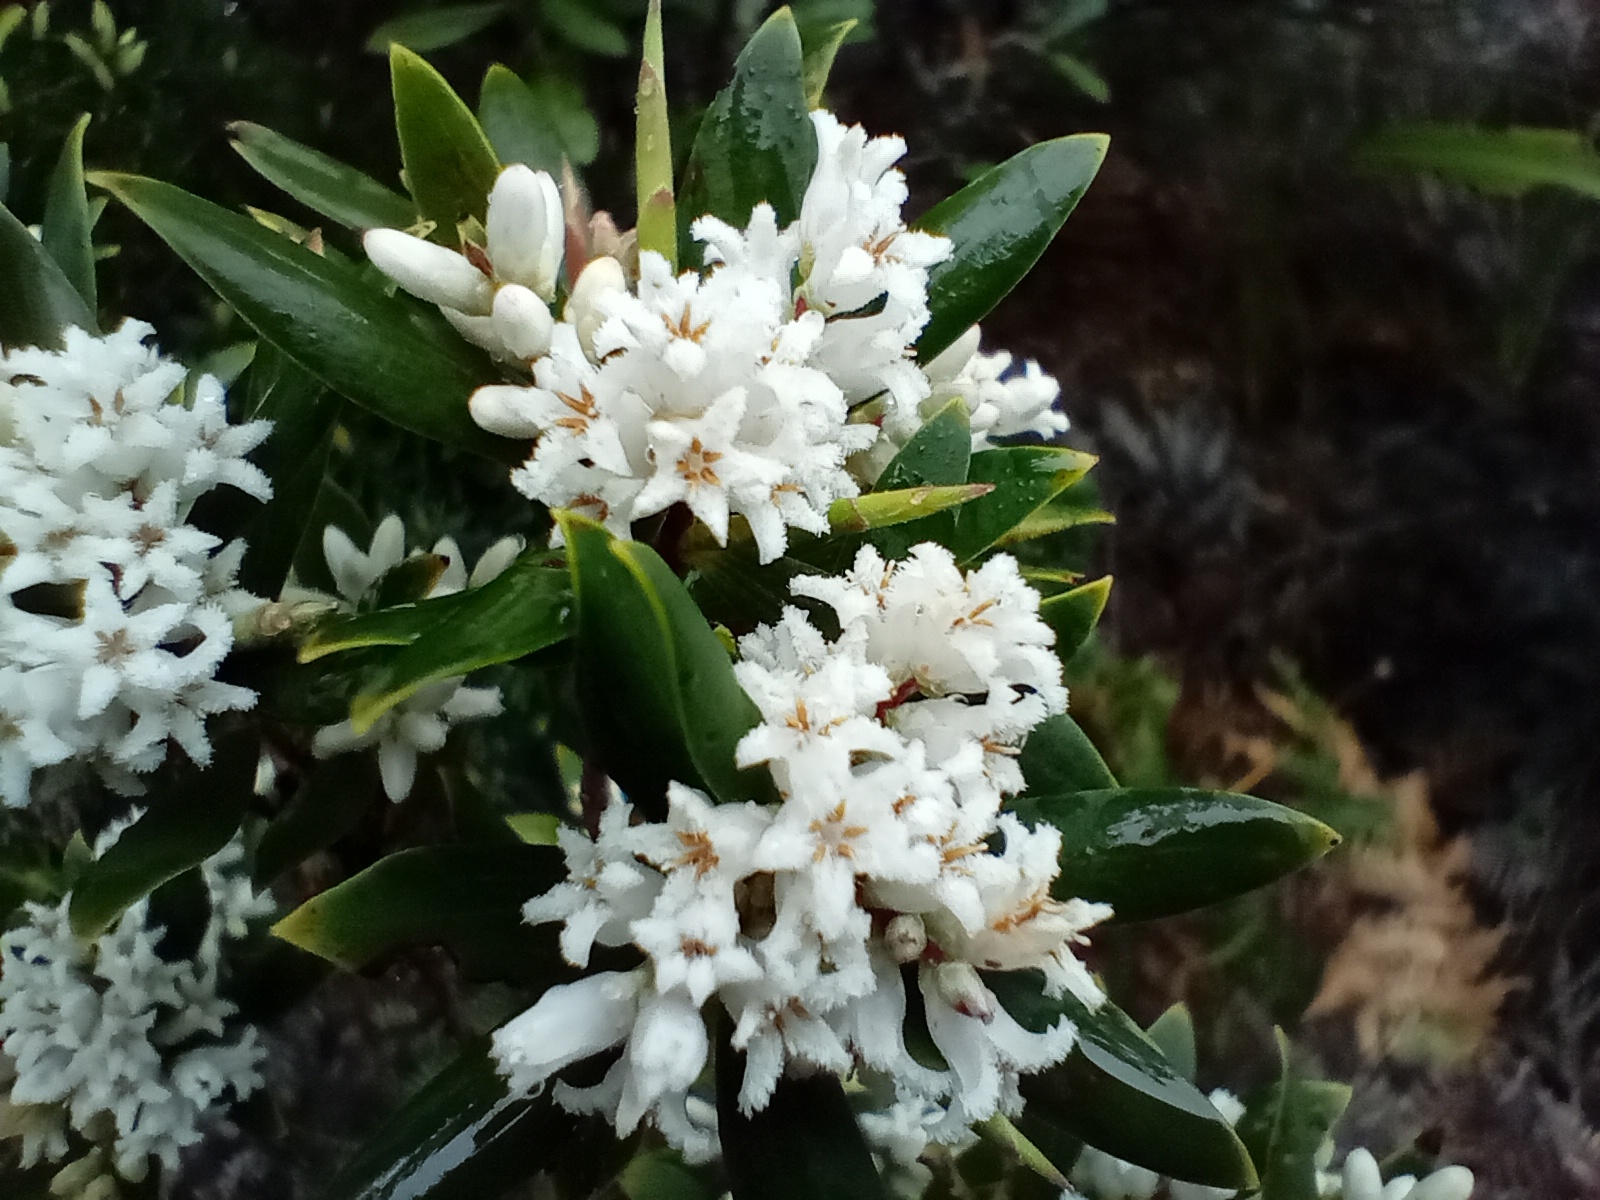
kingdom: Plantae
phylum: Tracheophyta
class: Magnoliopsida
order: Ericales
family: Ericaceae
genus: Leptecophylla
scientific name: Leptecophylla parvifolia
